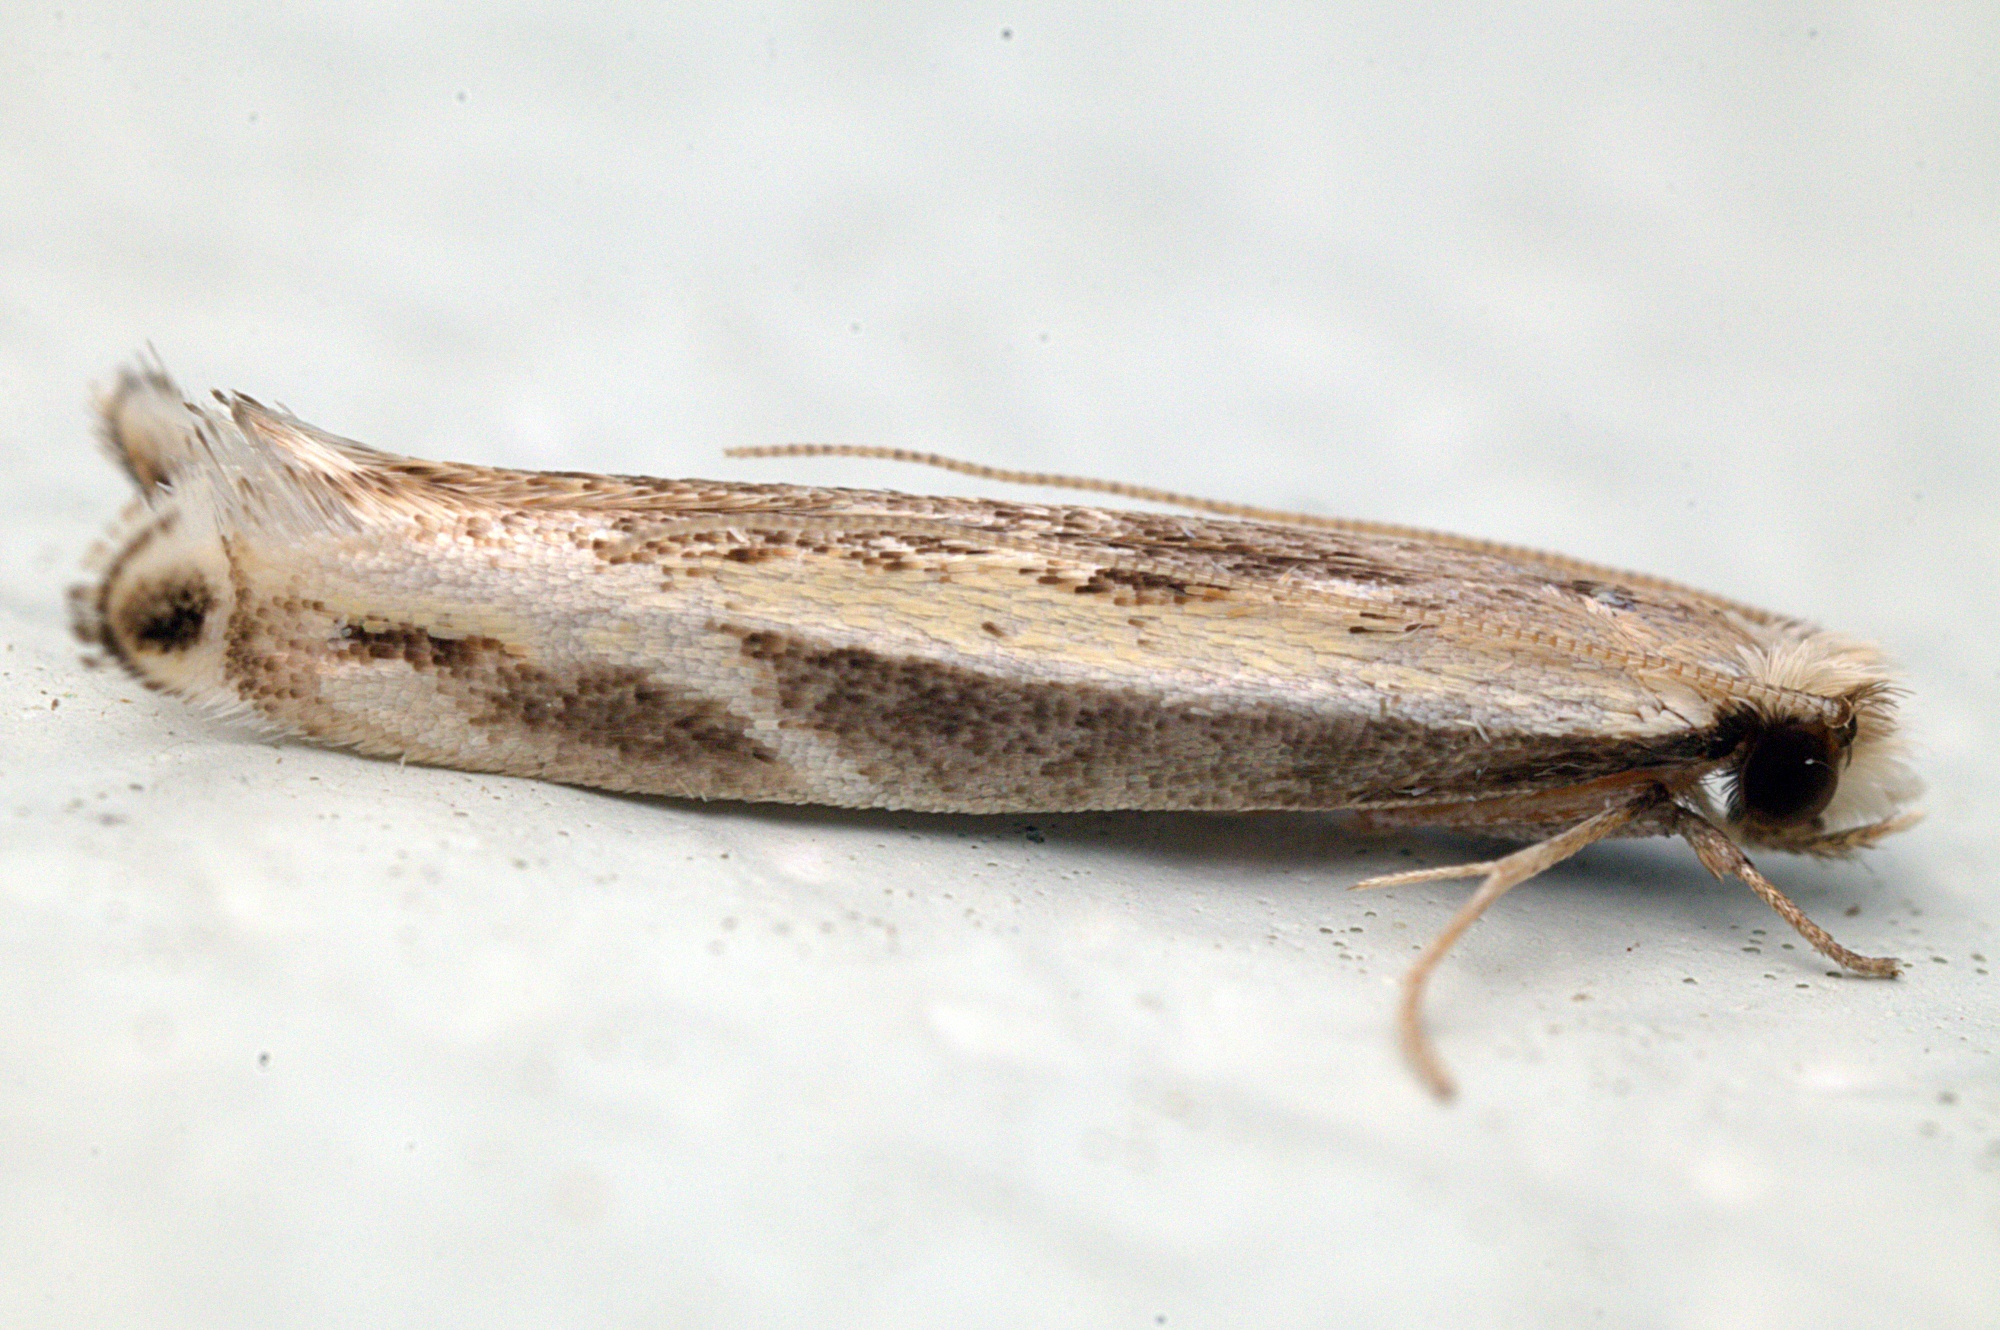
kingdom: Animalia
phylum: Arthropoda
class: Insecta
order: Lepidoptera
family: Tineidae
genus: Erechthias
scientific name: Erechthias terminella
